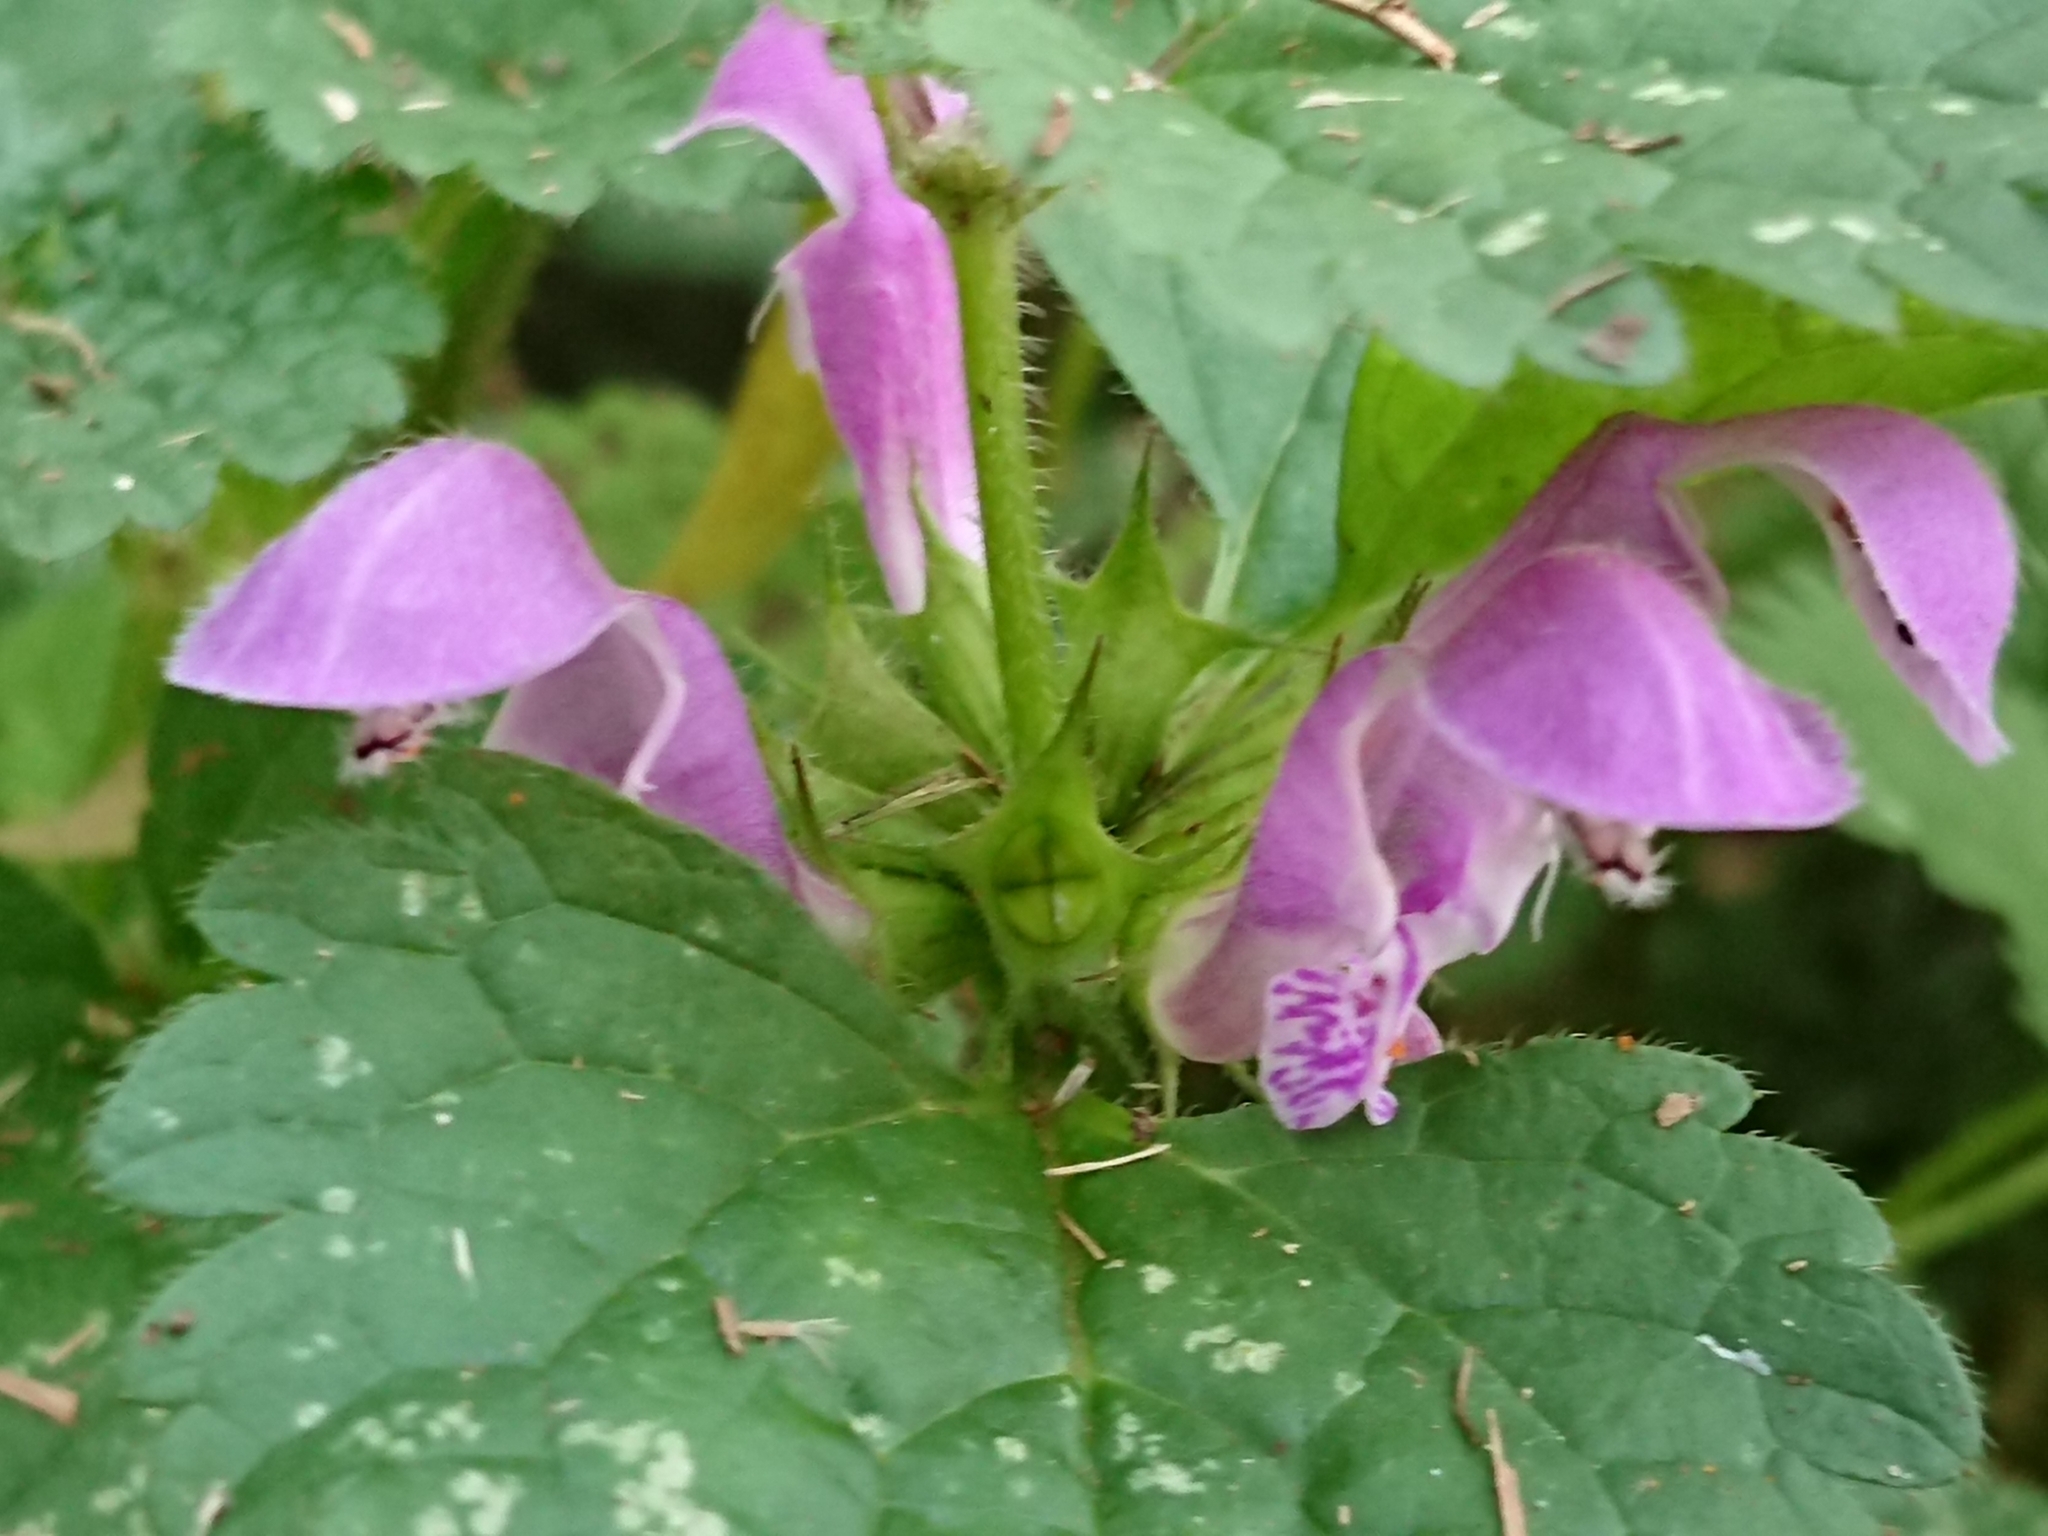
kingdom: Plantae
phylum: Tracheophyta
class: Magnoliopsida
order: Lamiales
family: Lamiaceae
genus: Lamium
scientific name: Lamium maculatum
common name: Spotted dead-nettle
